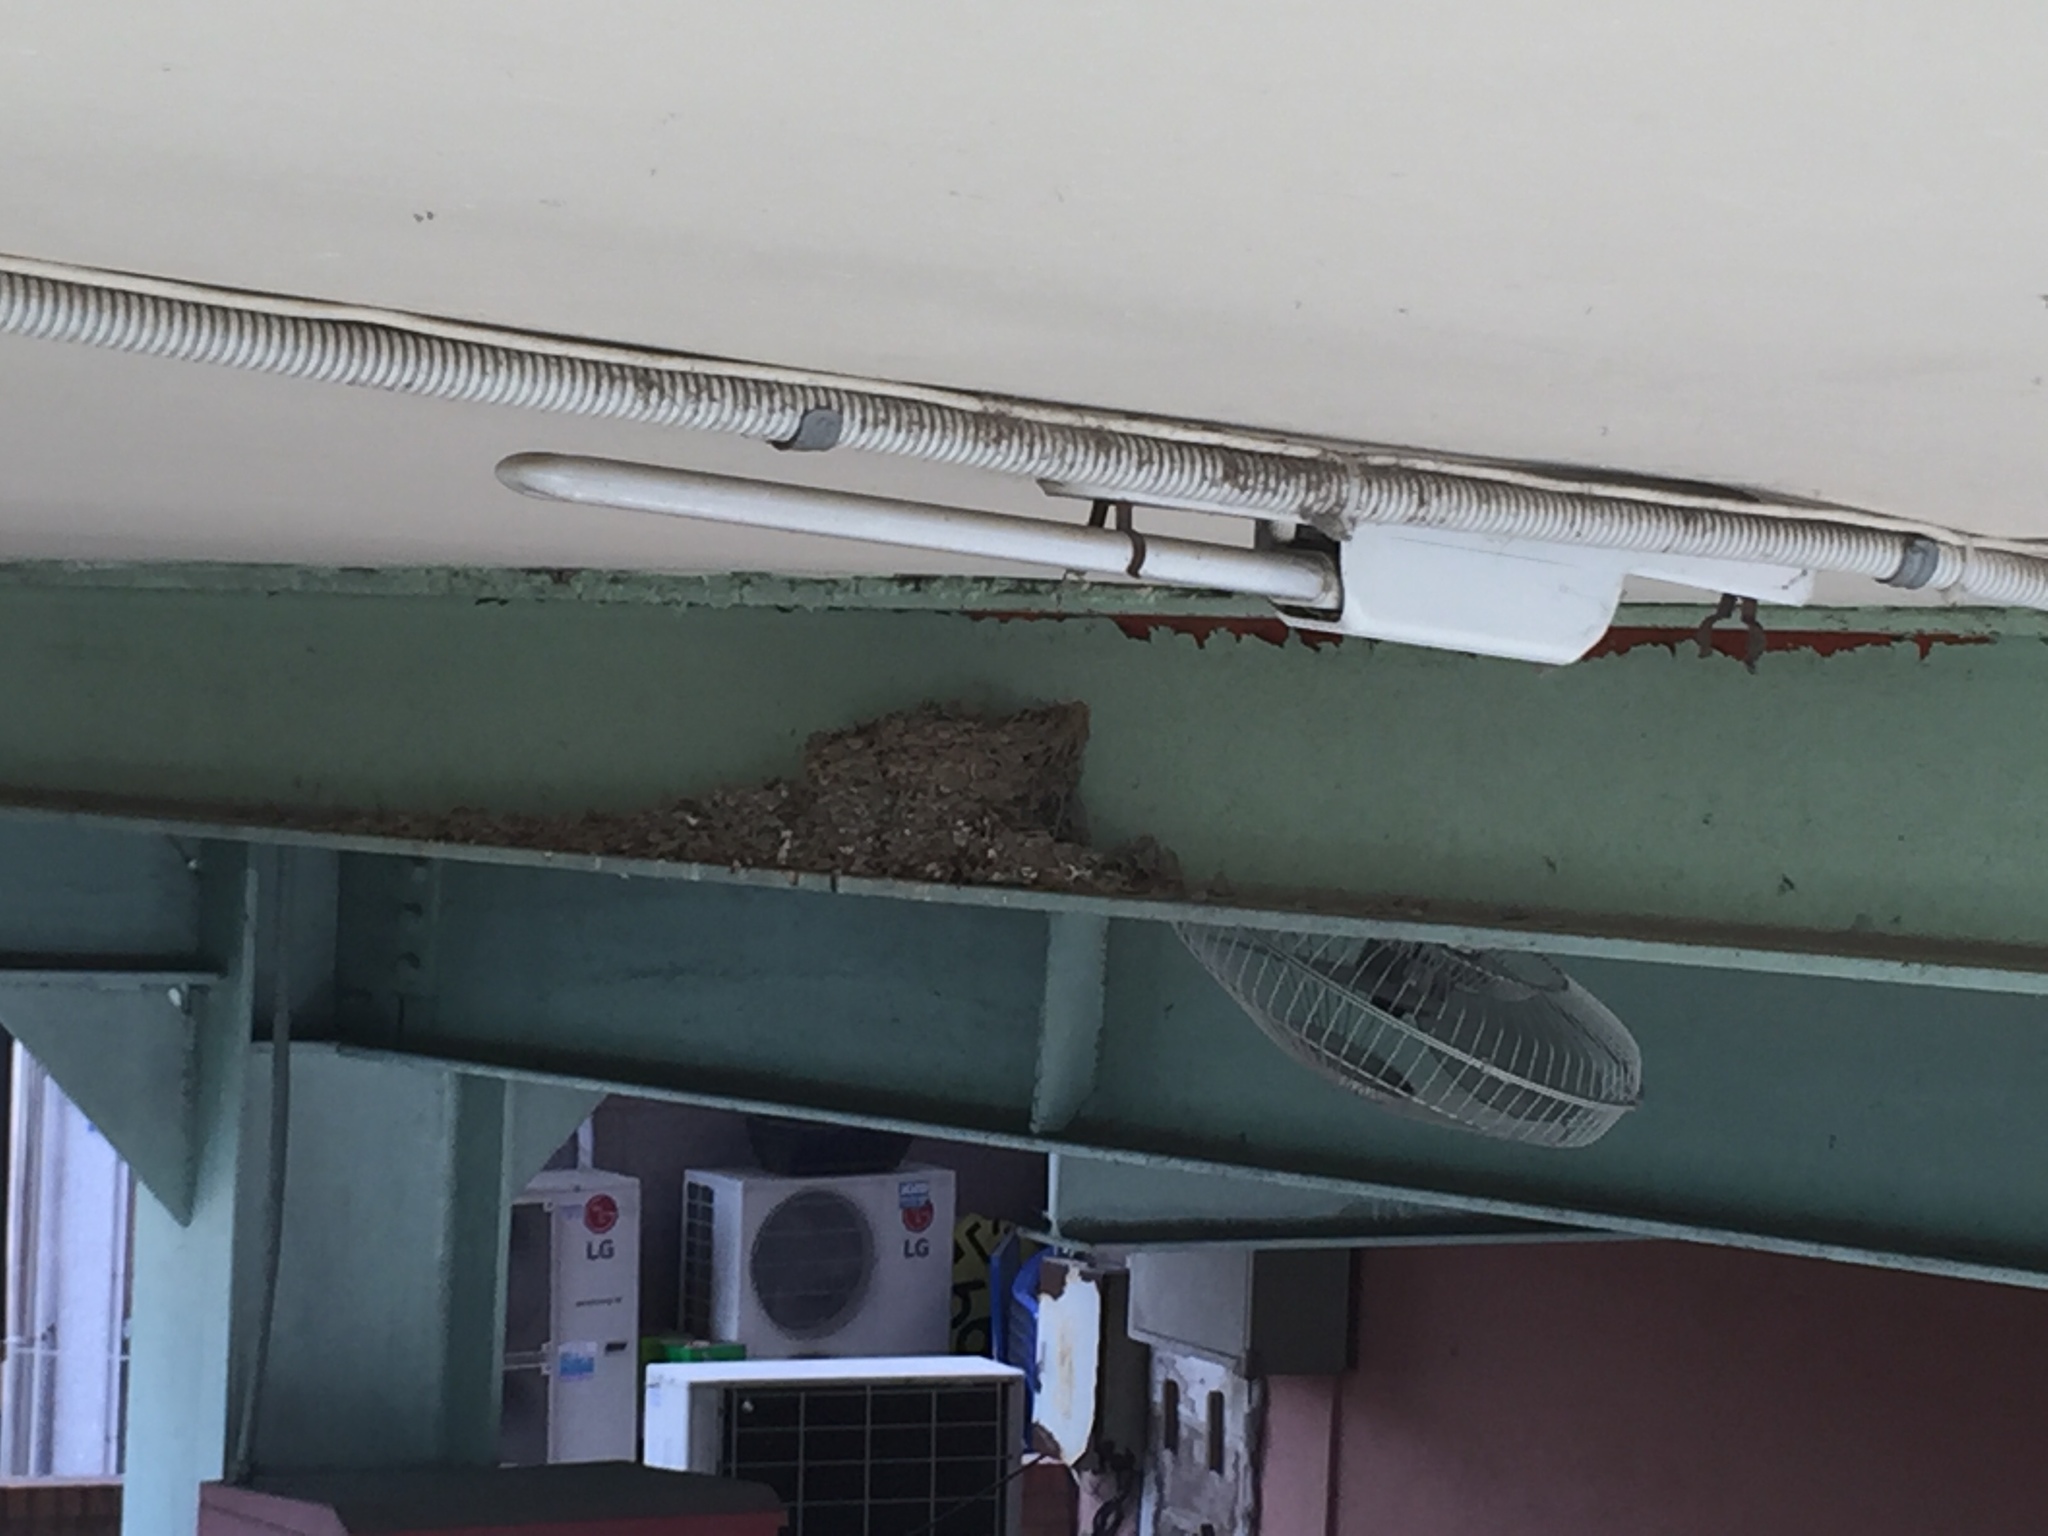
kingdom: Animalia
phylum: Chordata
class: Aves
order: Passeriformes
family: Hirundinidae
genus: Hirundo
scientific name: Hirundo rustica
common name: Barn swallow
